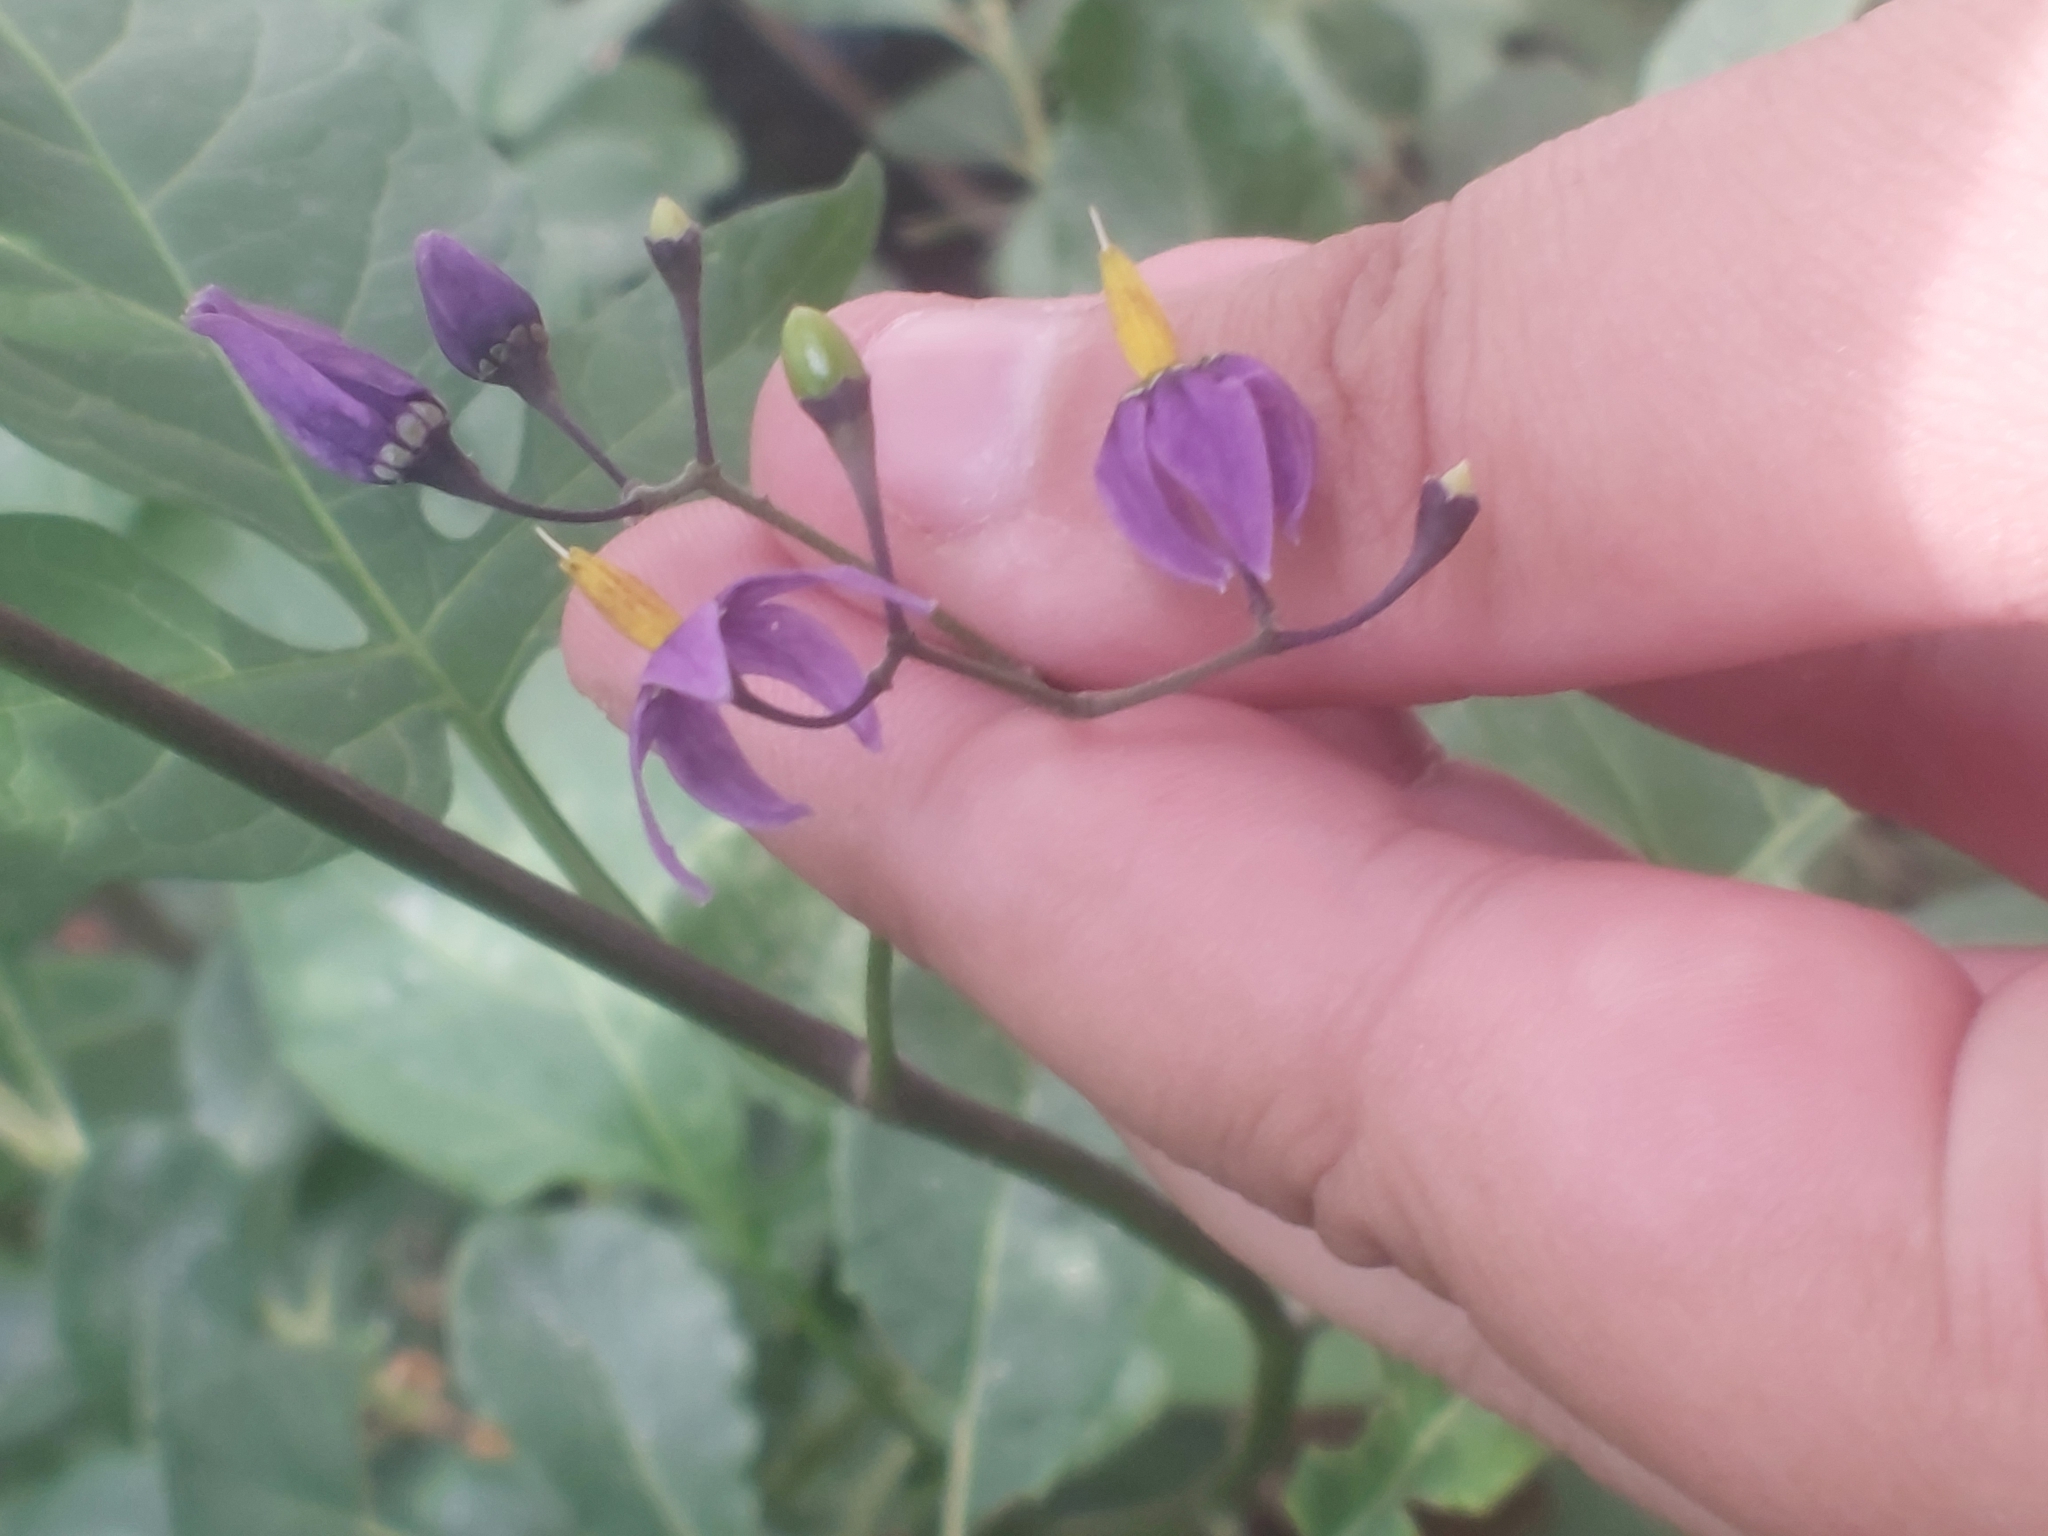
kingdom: Plantae
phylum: Tracheophyta
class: Magnoliopsida
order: Solanales
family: Solanaceae
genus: Solanum
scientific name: Solanum dulcamara
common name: Climbing nightshade
